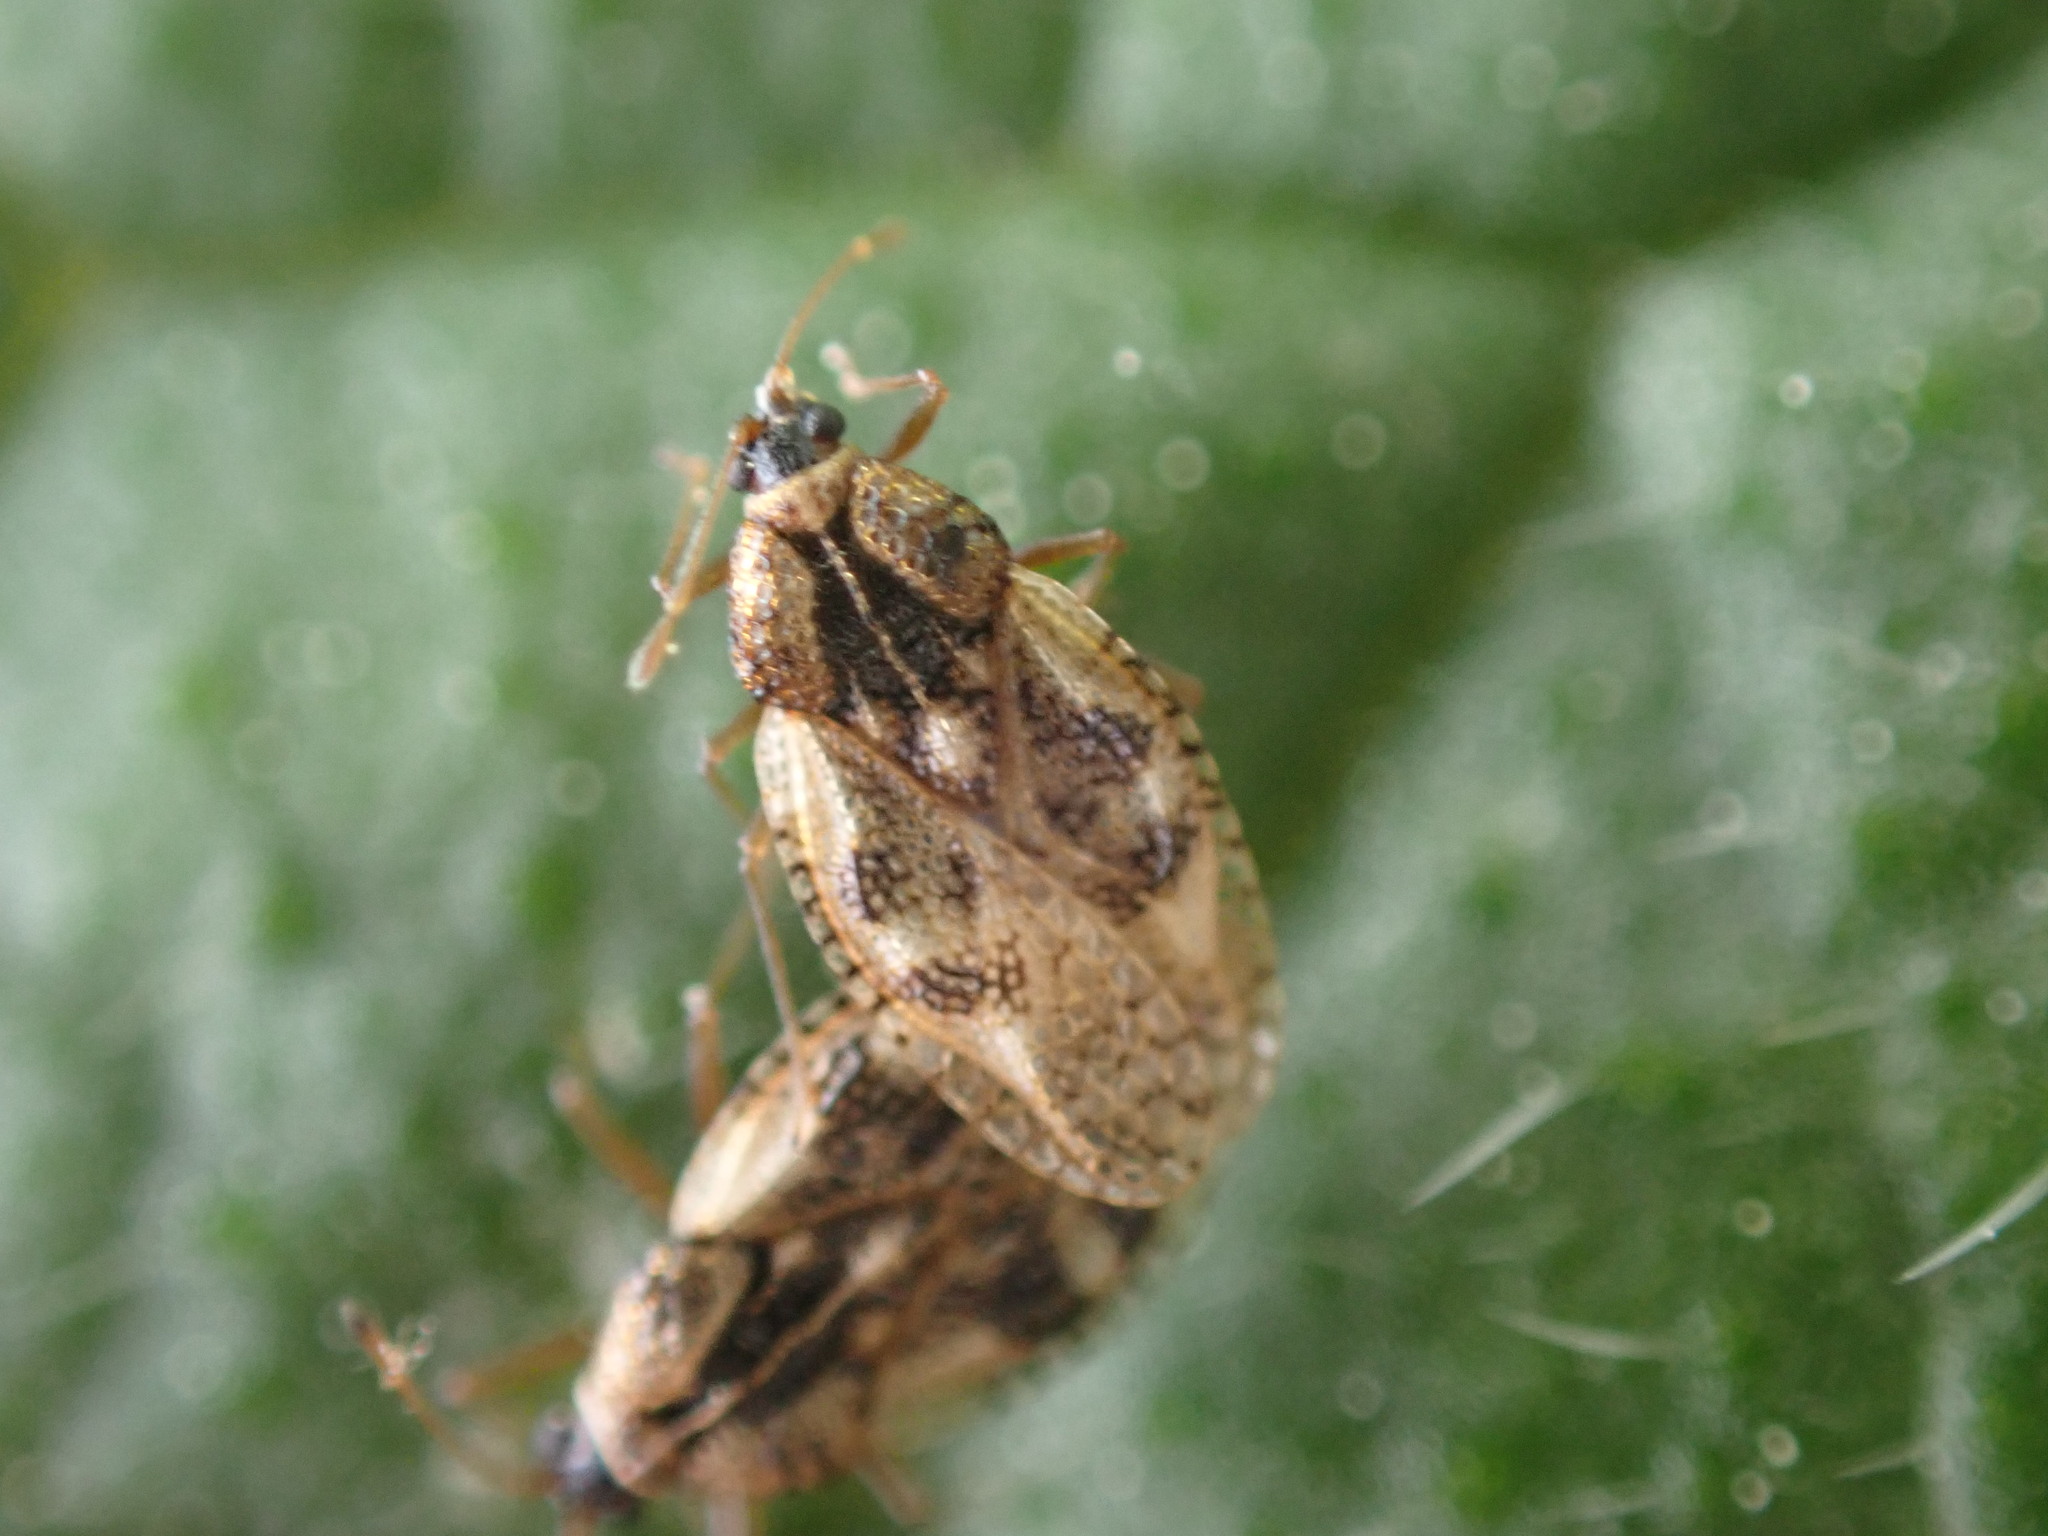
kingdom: Animalia
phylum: Arthropoda
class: Insecta
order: Hemiptera
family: Tingidae
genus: Dictyla
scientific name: Dictyla humuli
